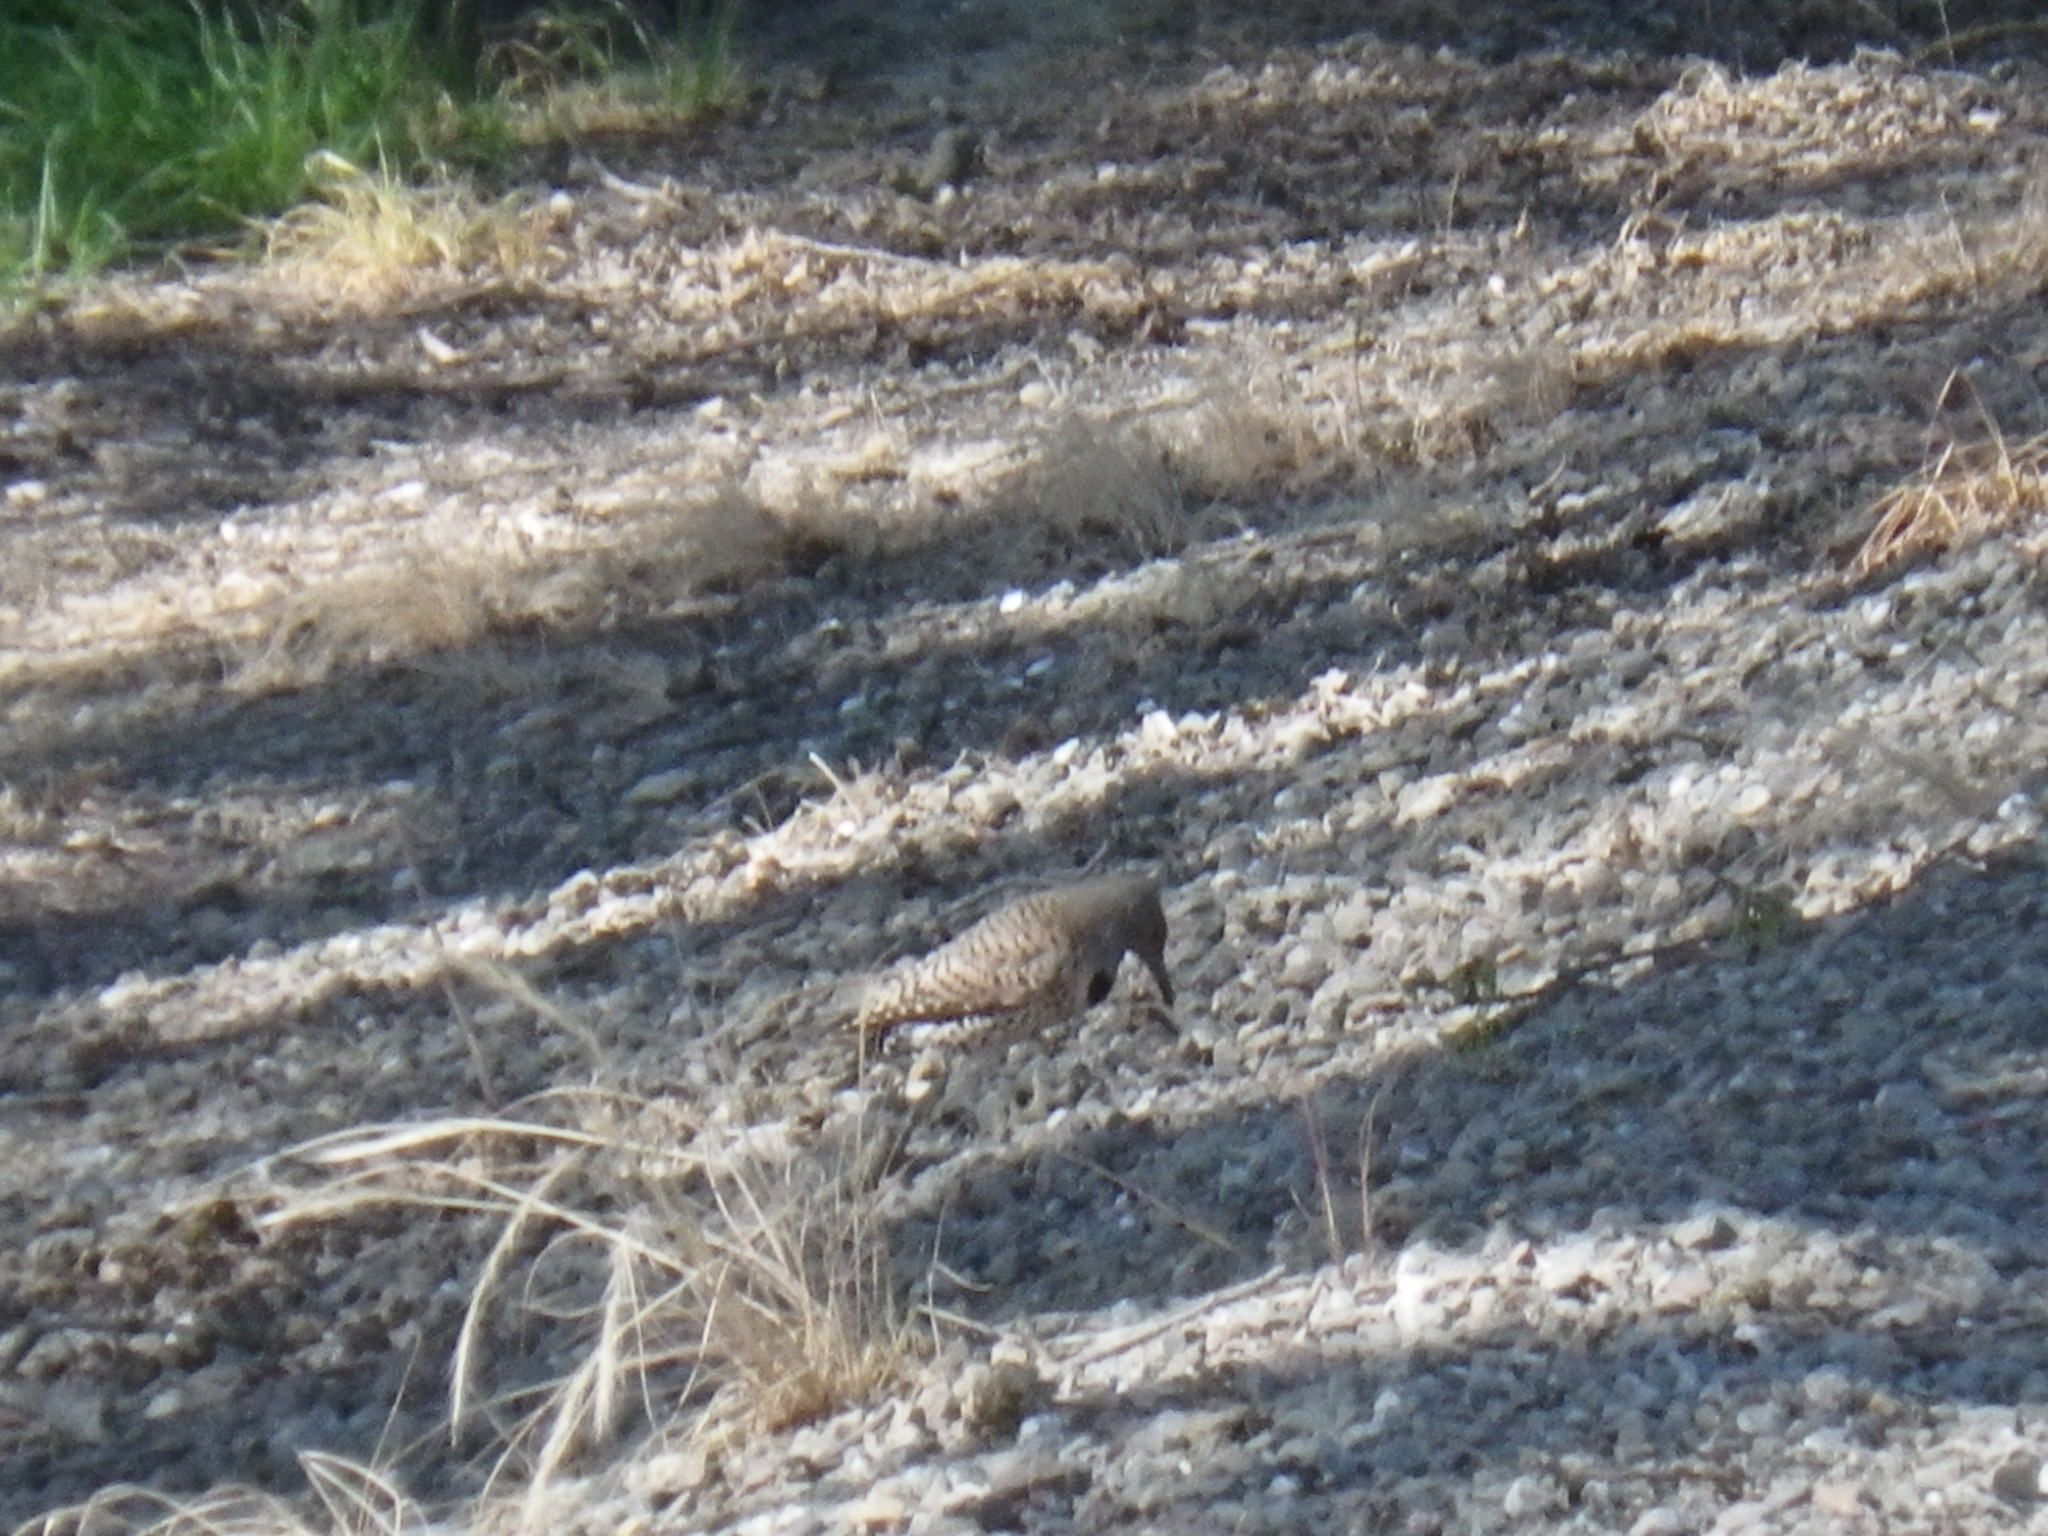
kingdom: Animalia
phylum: Chordata
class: Aves
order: Piciformes
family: Picidae
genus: Colaptes
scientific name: Colaptes auratus
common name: Northern flicker
